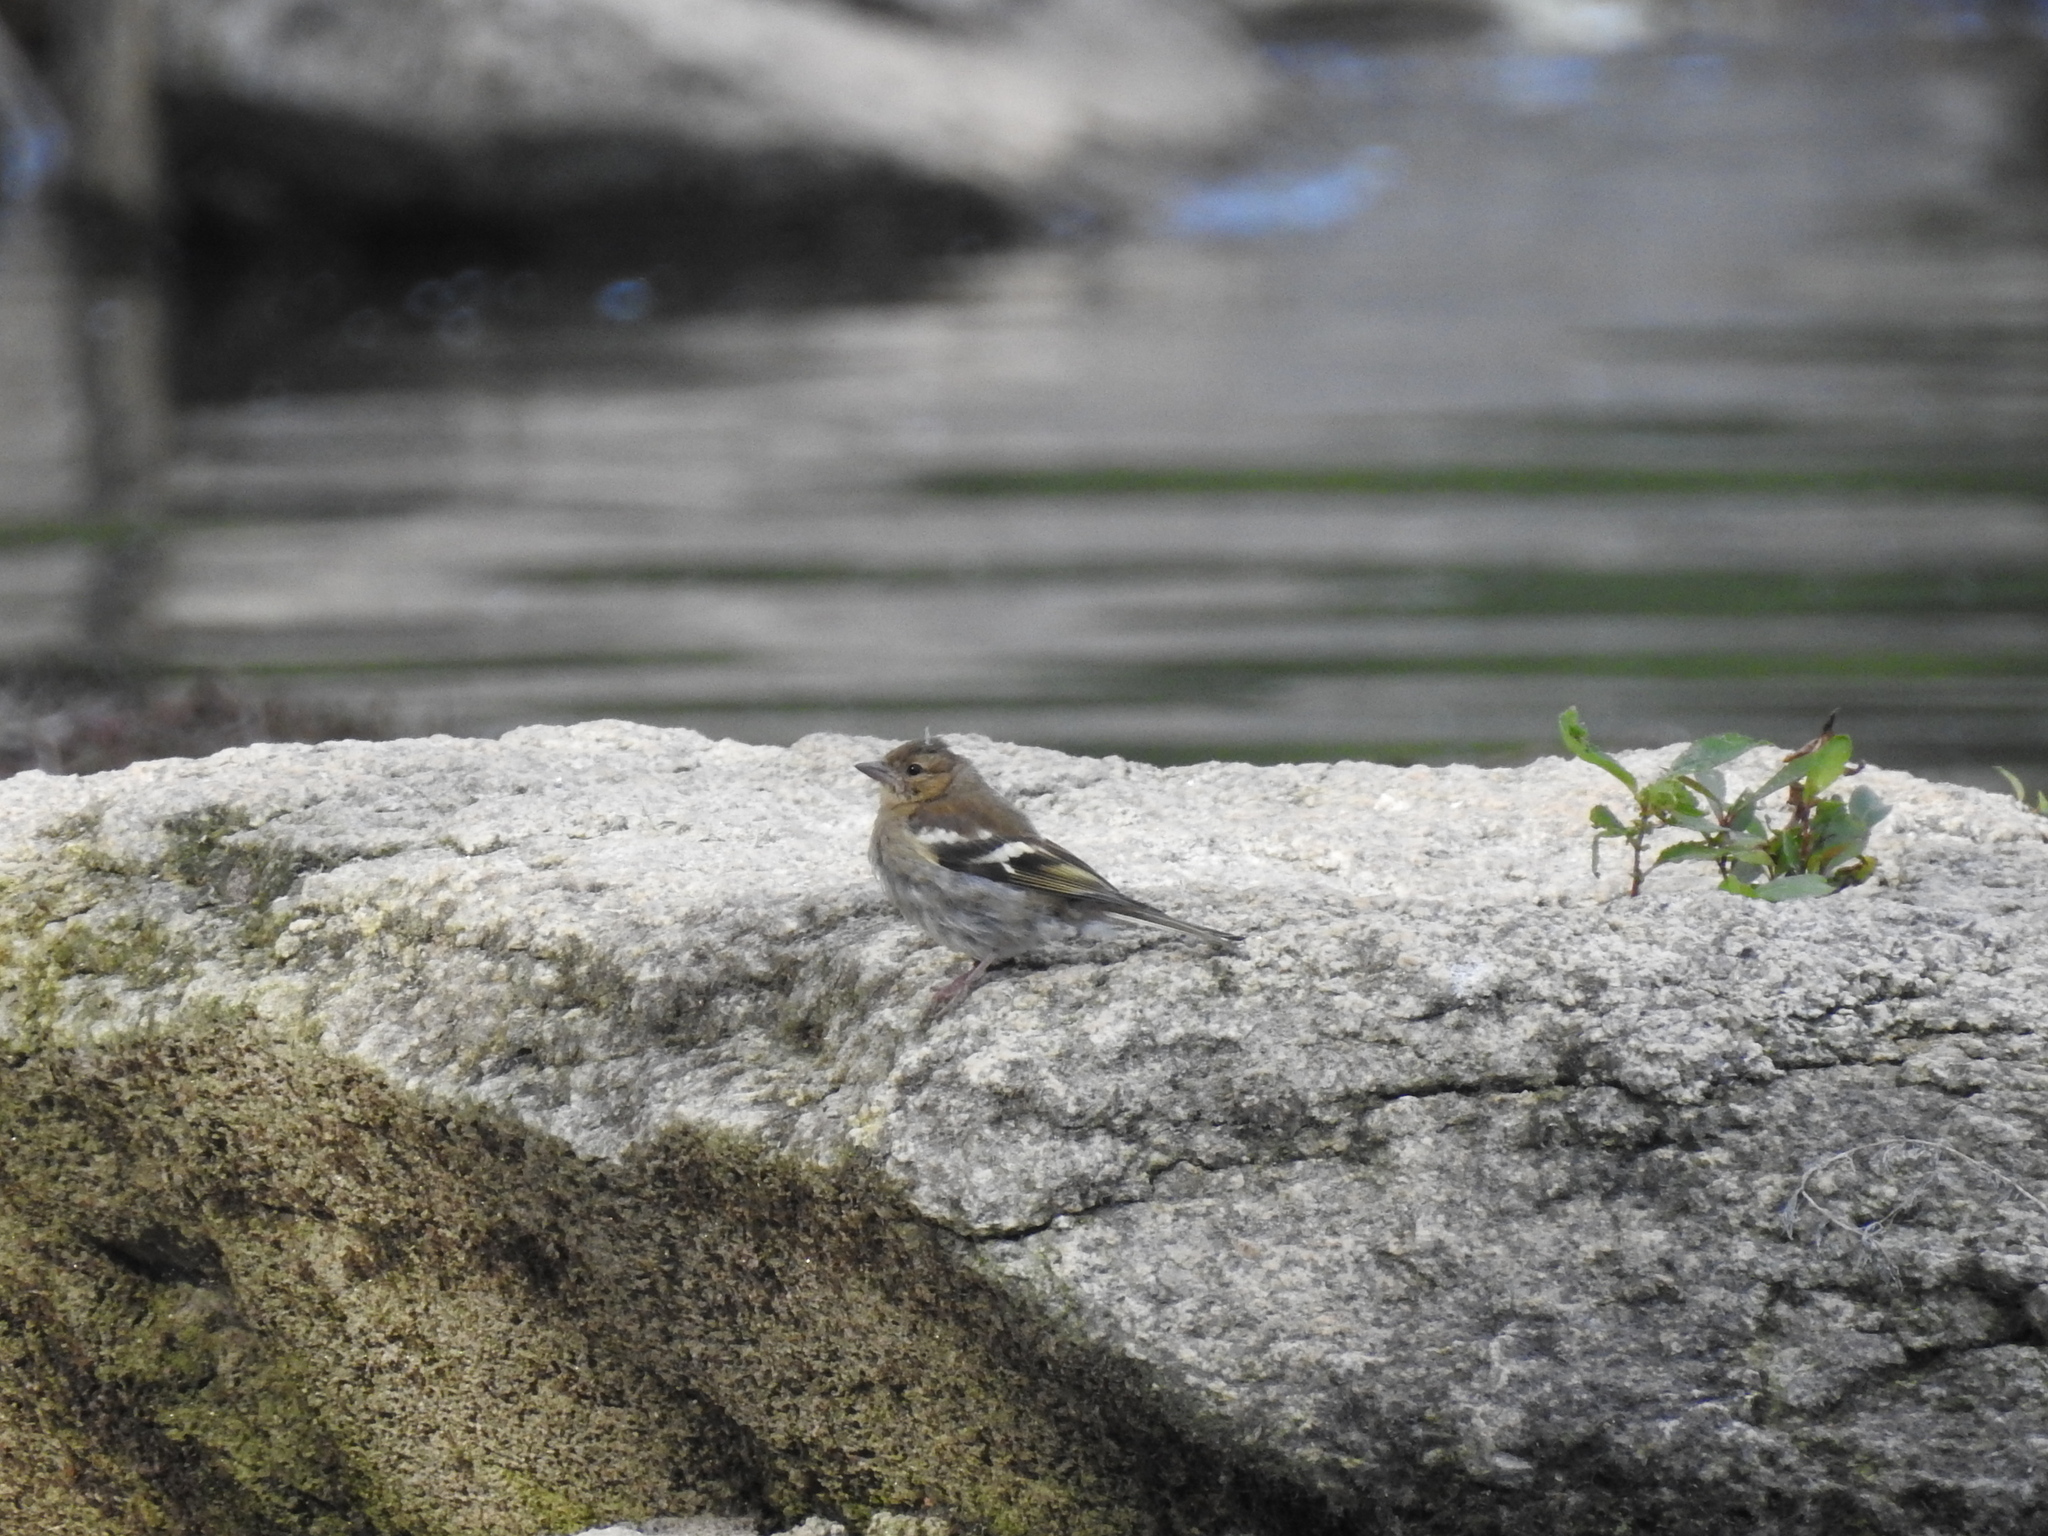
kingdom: Animalia
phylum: Chordata
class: Aves
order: Passeriformes
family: Fringillidae
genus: Fringilla
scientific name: Fringilla coelebs
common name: Common chaffinch
